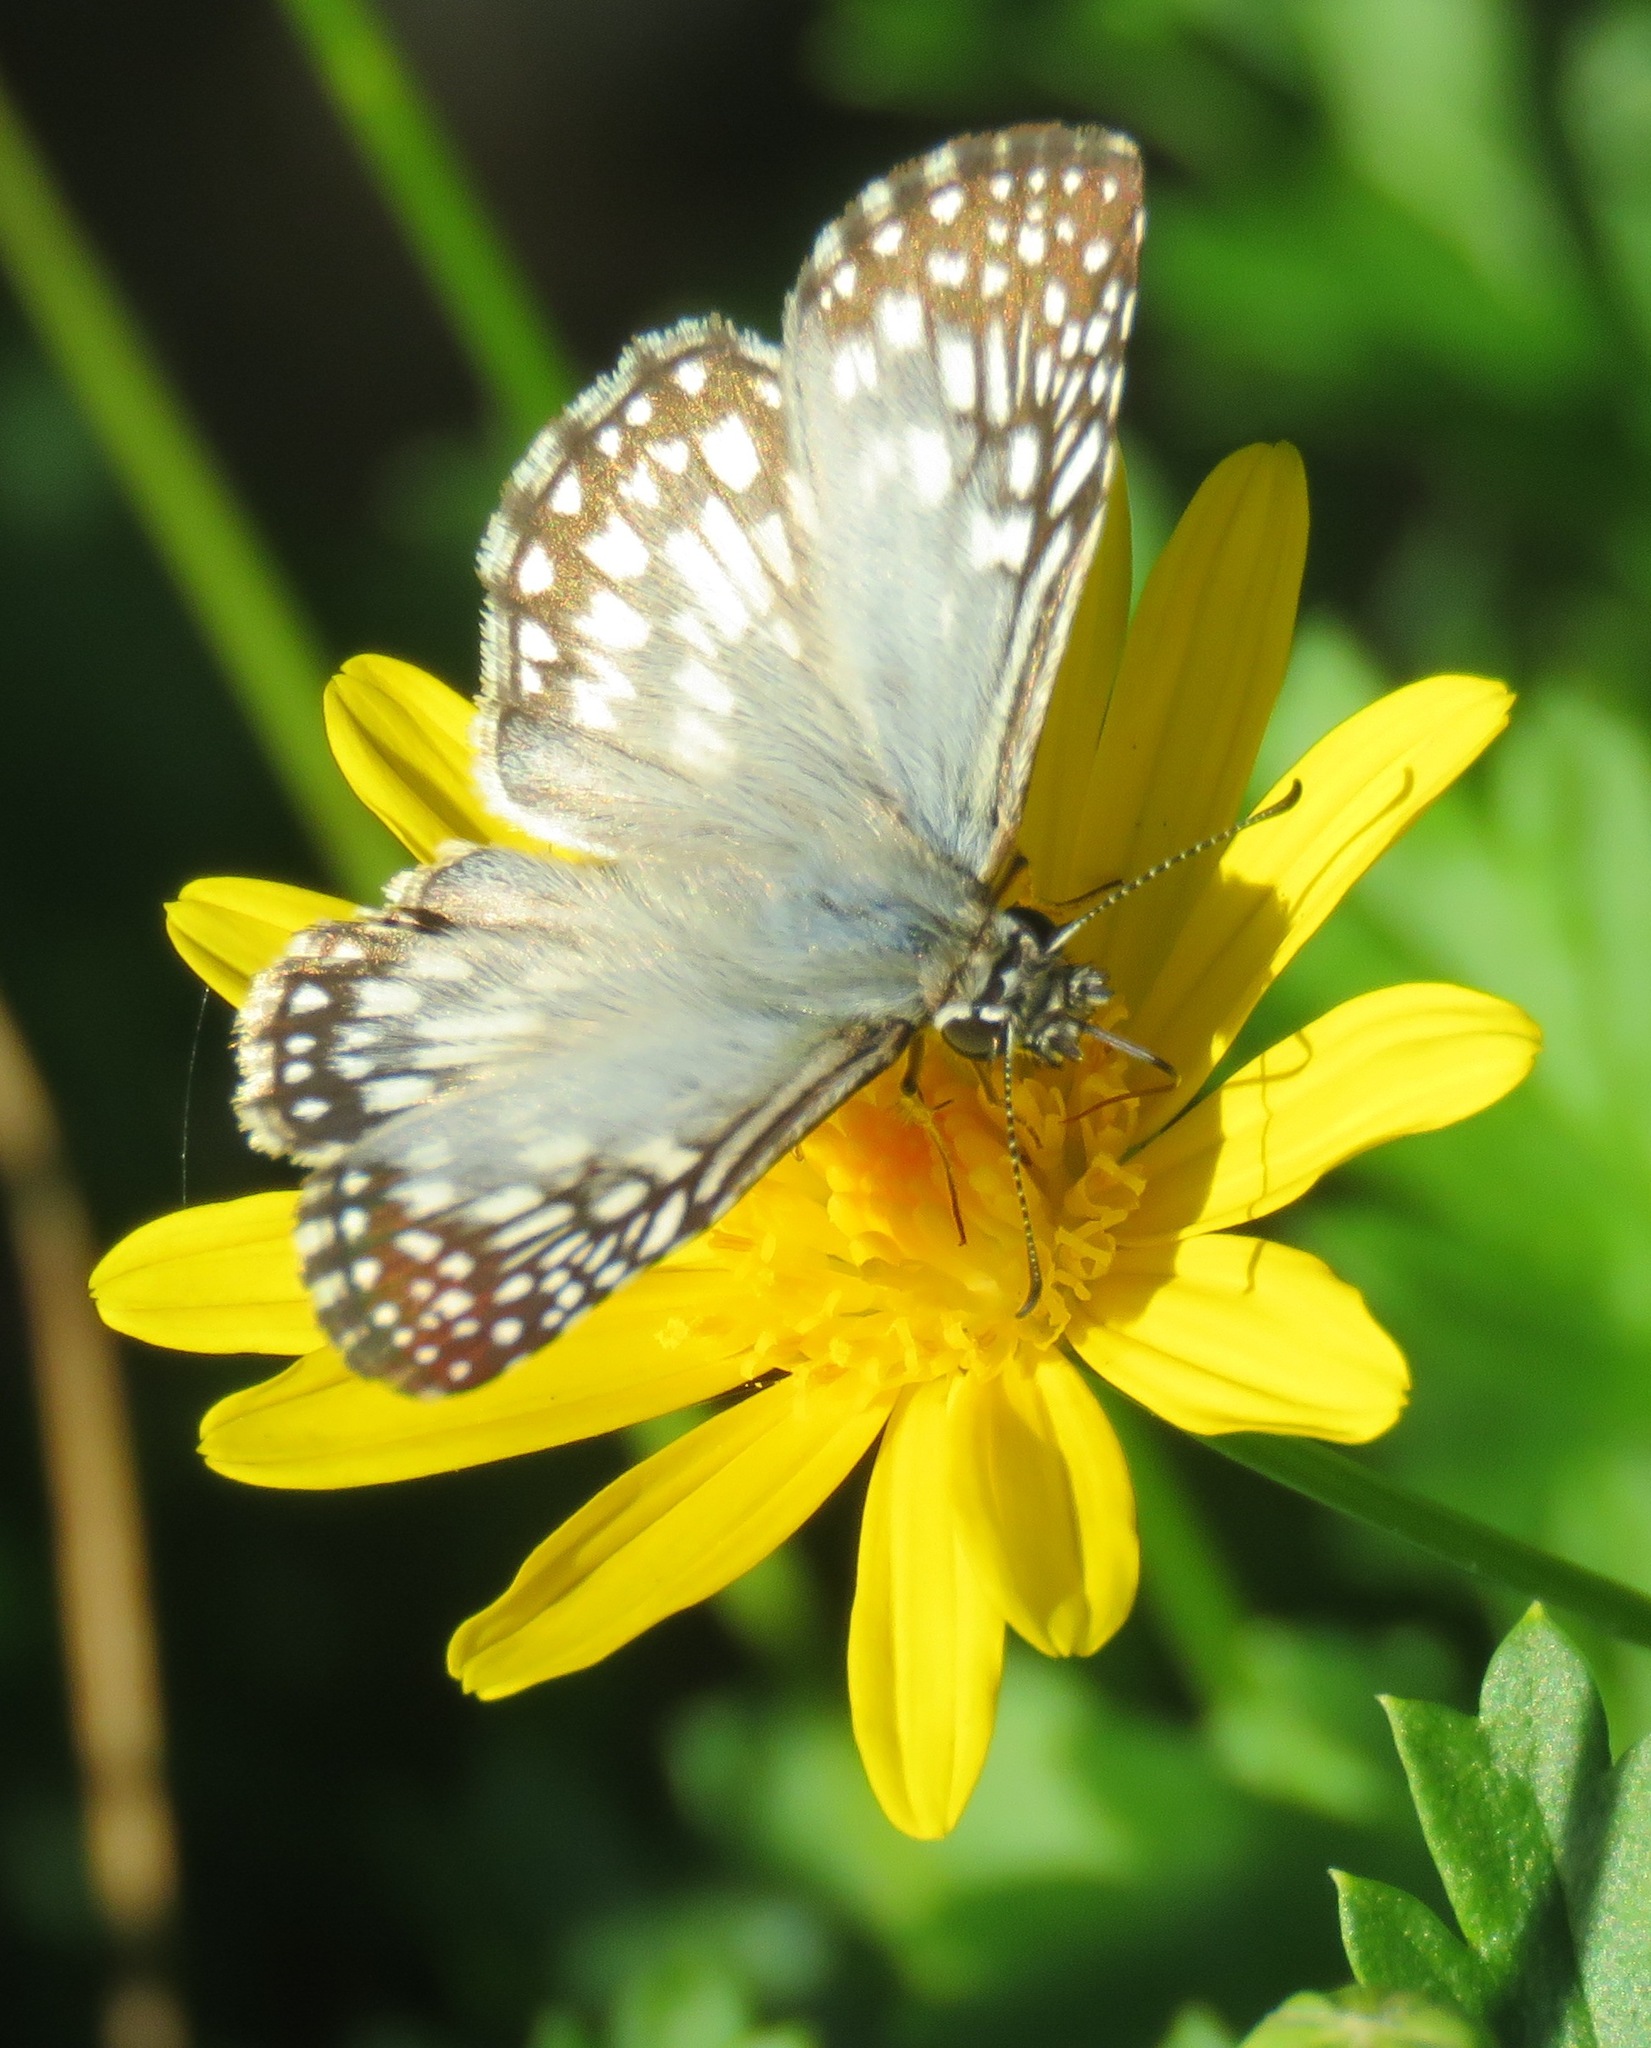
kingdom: Animalia
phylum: Arthropoda
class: Insecta
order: Lepidoptera
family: Hesperiidae
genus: Pyrgus
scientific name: Pyrgus oileus
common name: Tropical checkered-skipper
